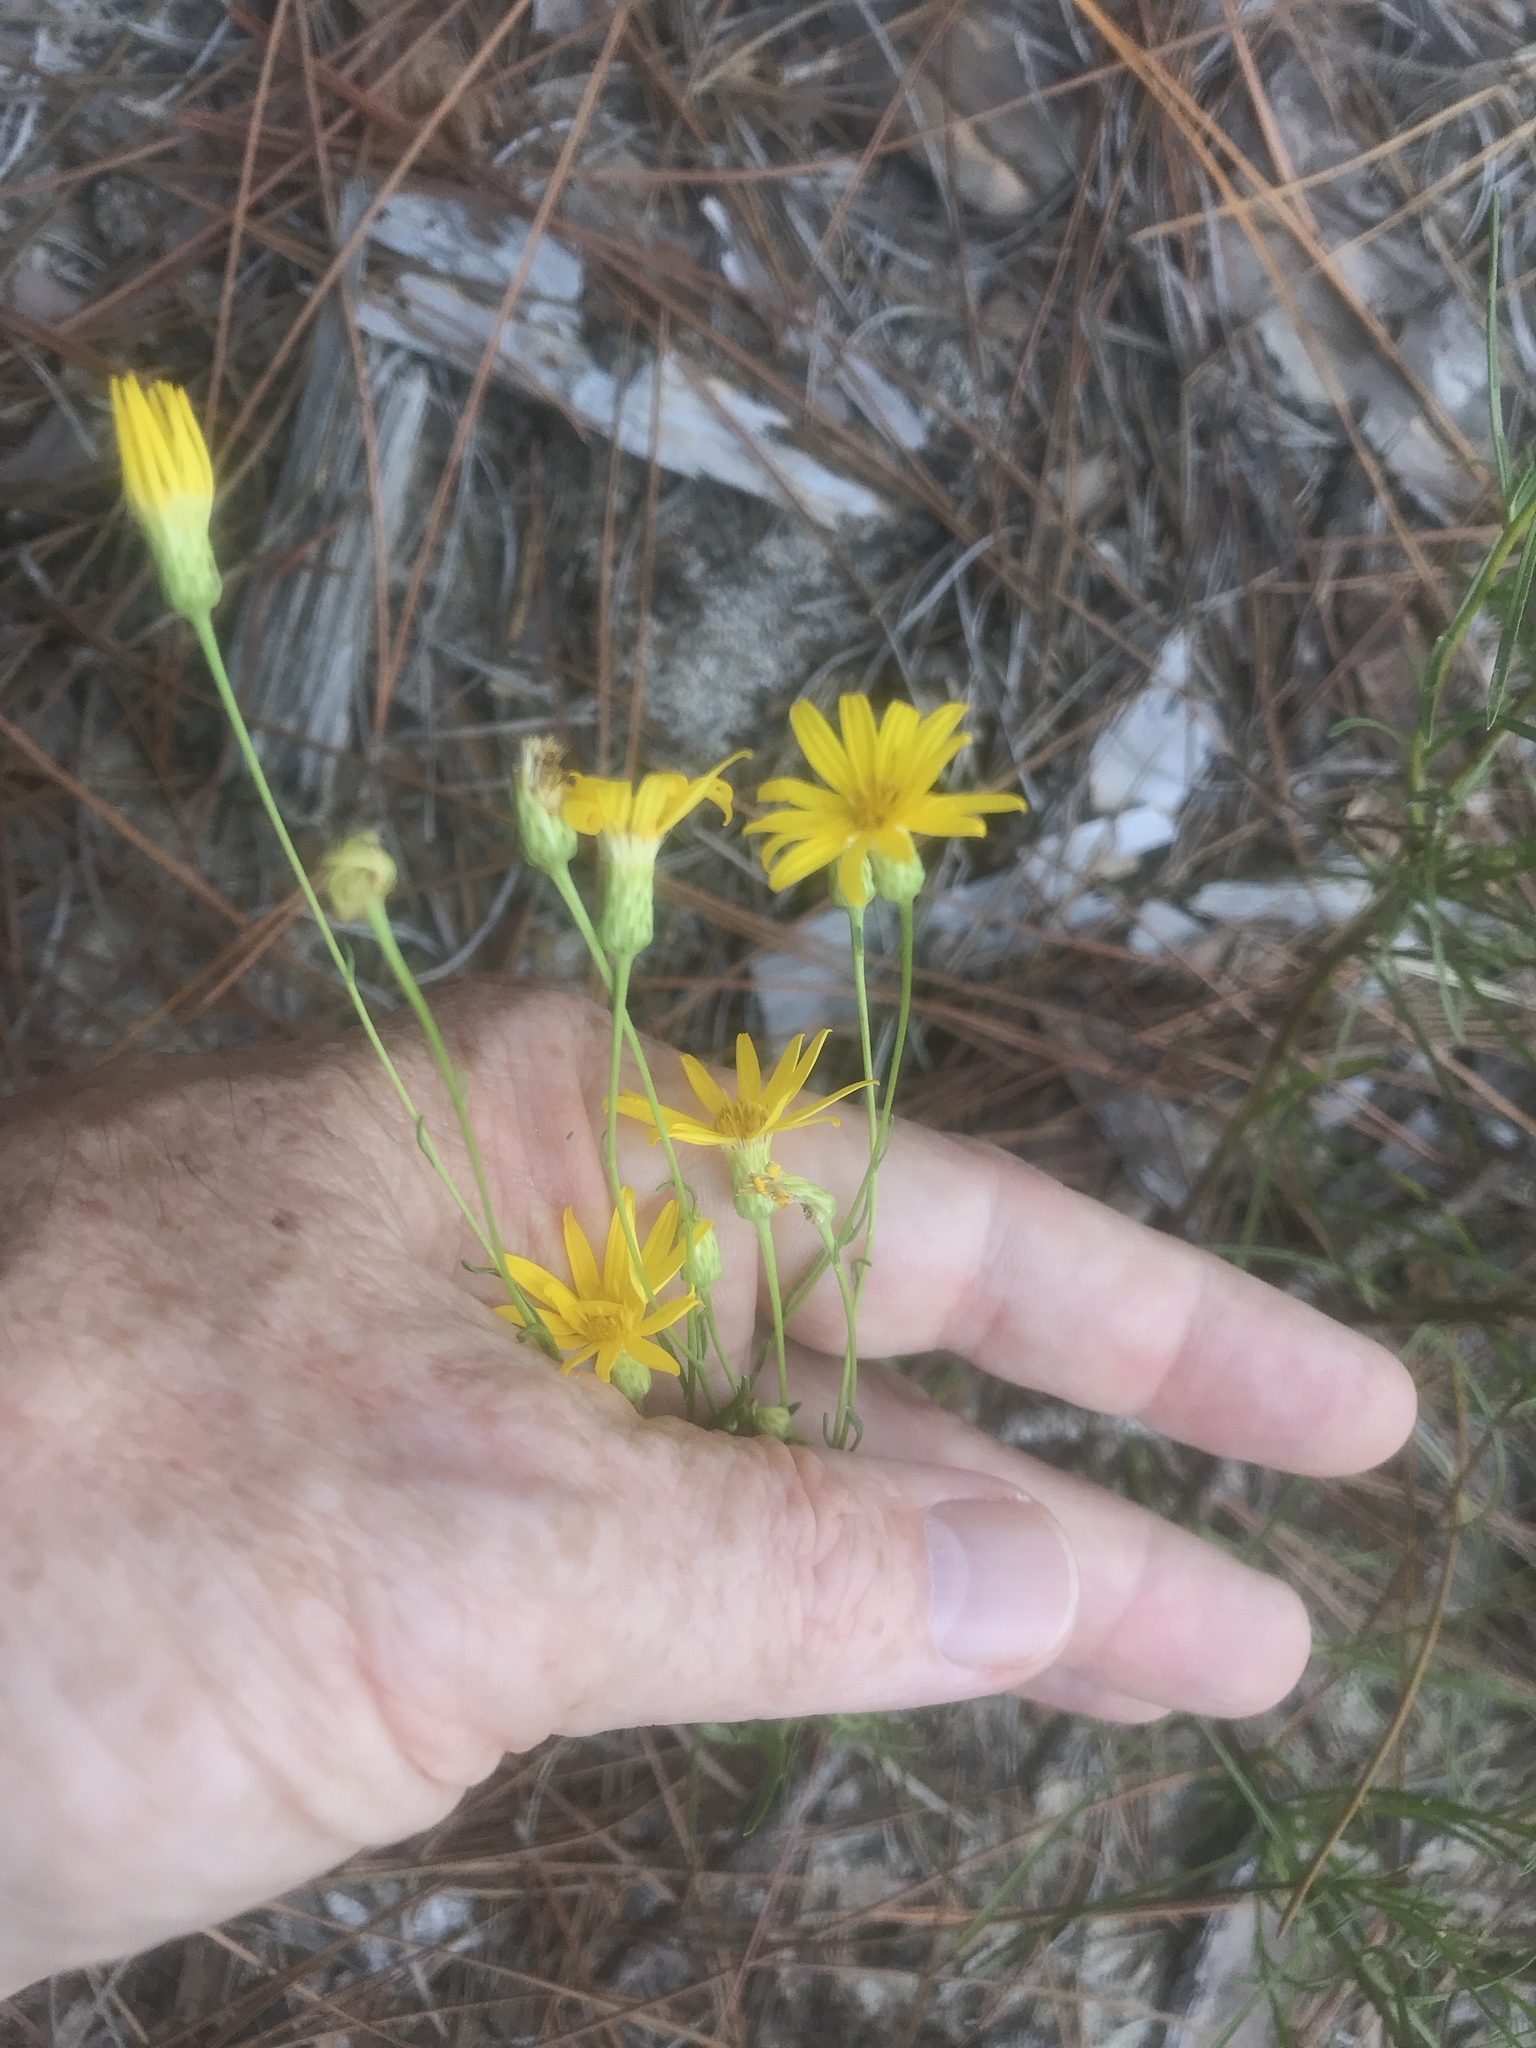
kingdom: Plantae
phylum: Tracheophyta
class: Magnoliopsida
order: Asterales
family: Asteraceae
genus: Pityopsis
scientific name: Pityopsis pinifolia
